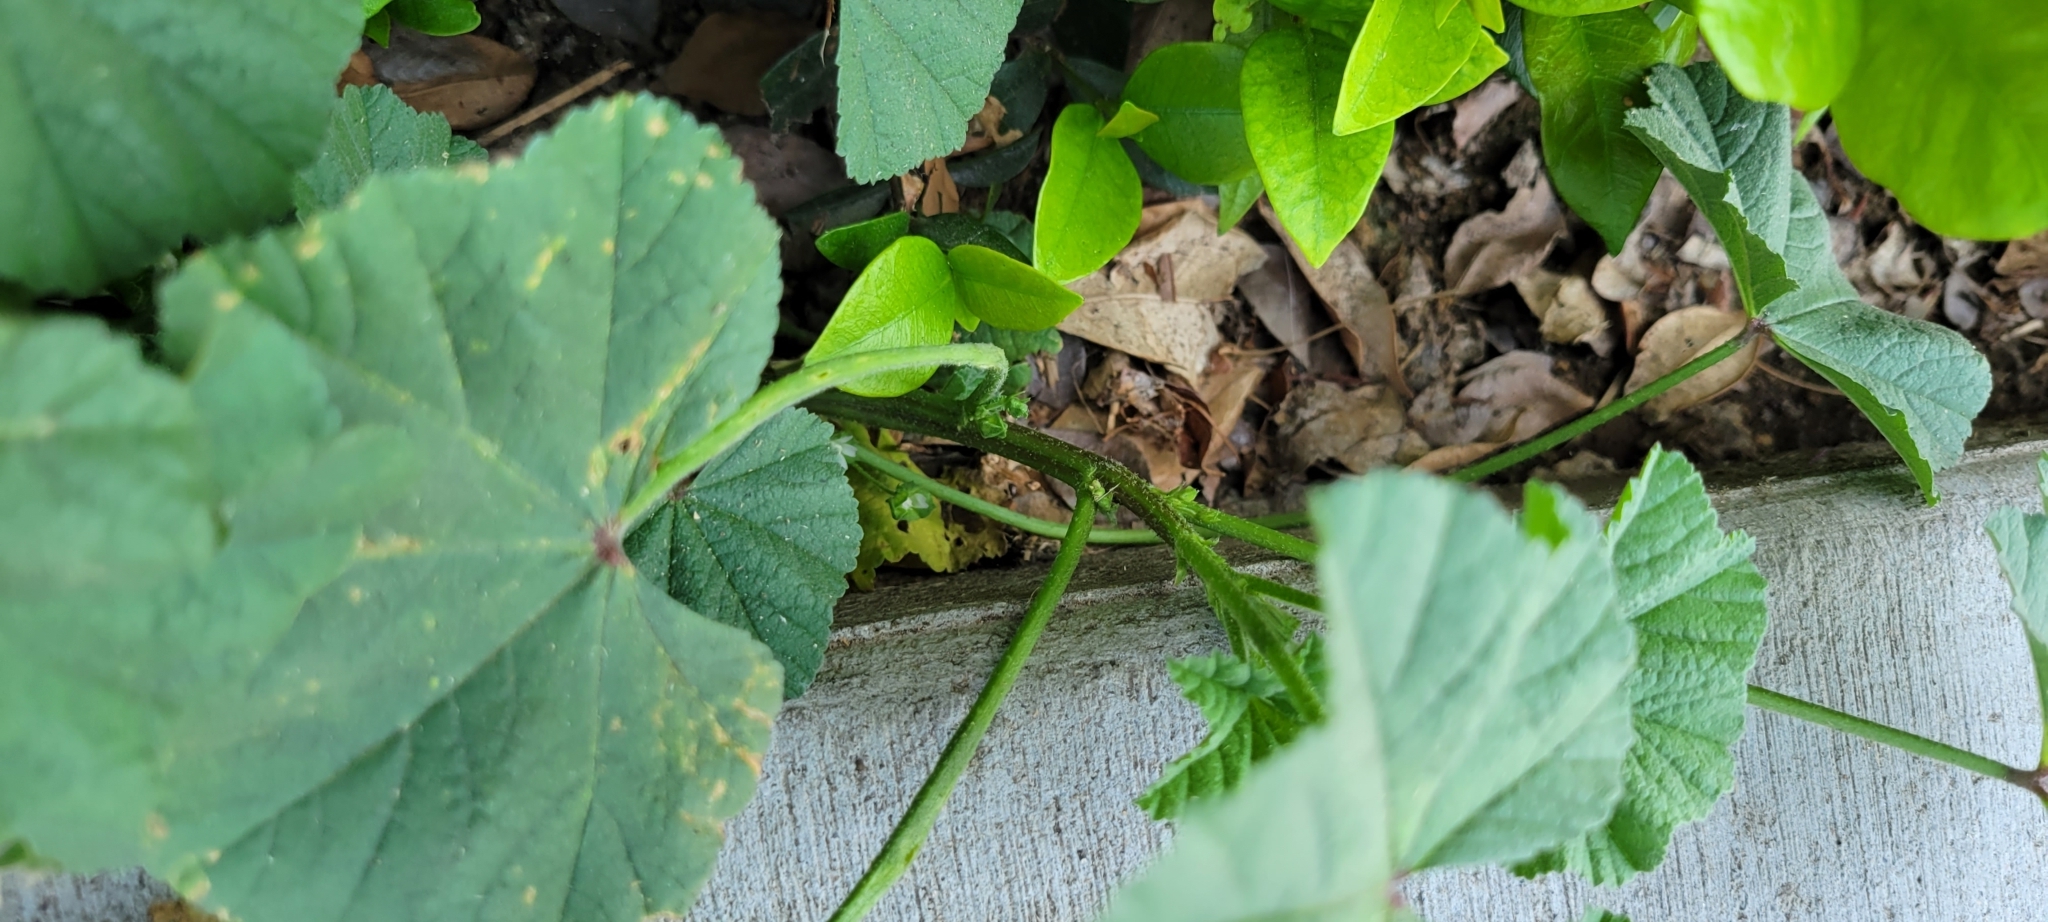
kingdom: Plantae
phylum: Tracheophyta
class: Magnoliopsida
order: Malvales
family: Malvaceae
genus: Malva
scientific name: Malva
